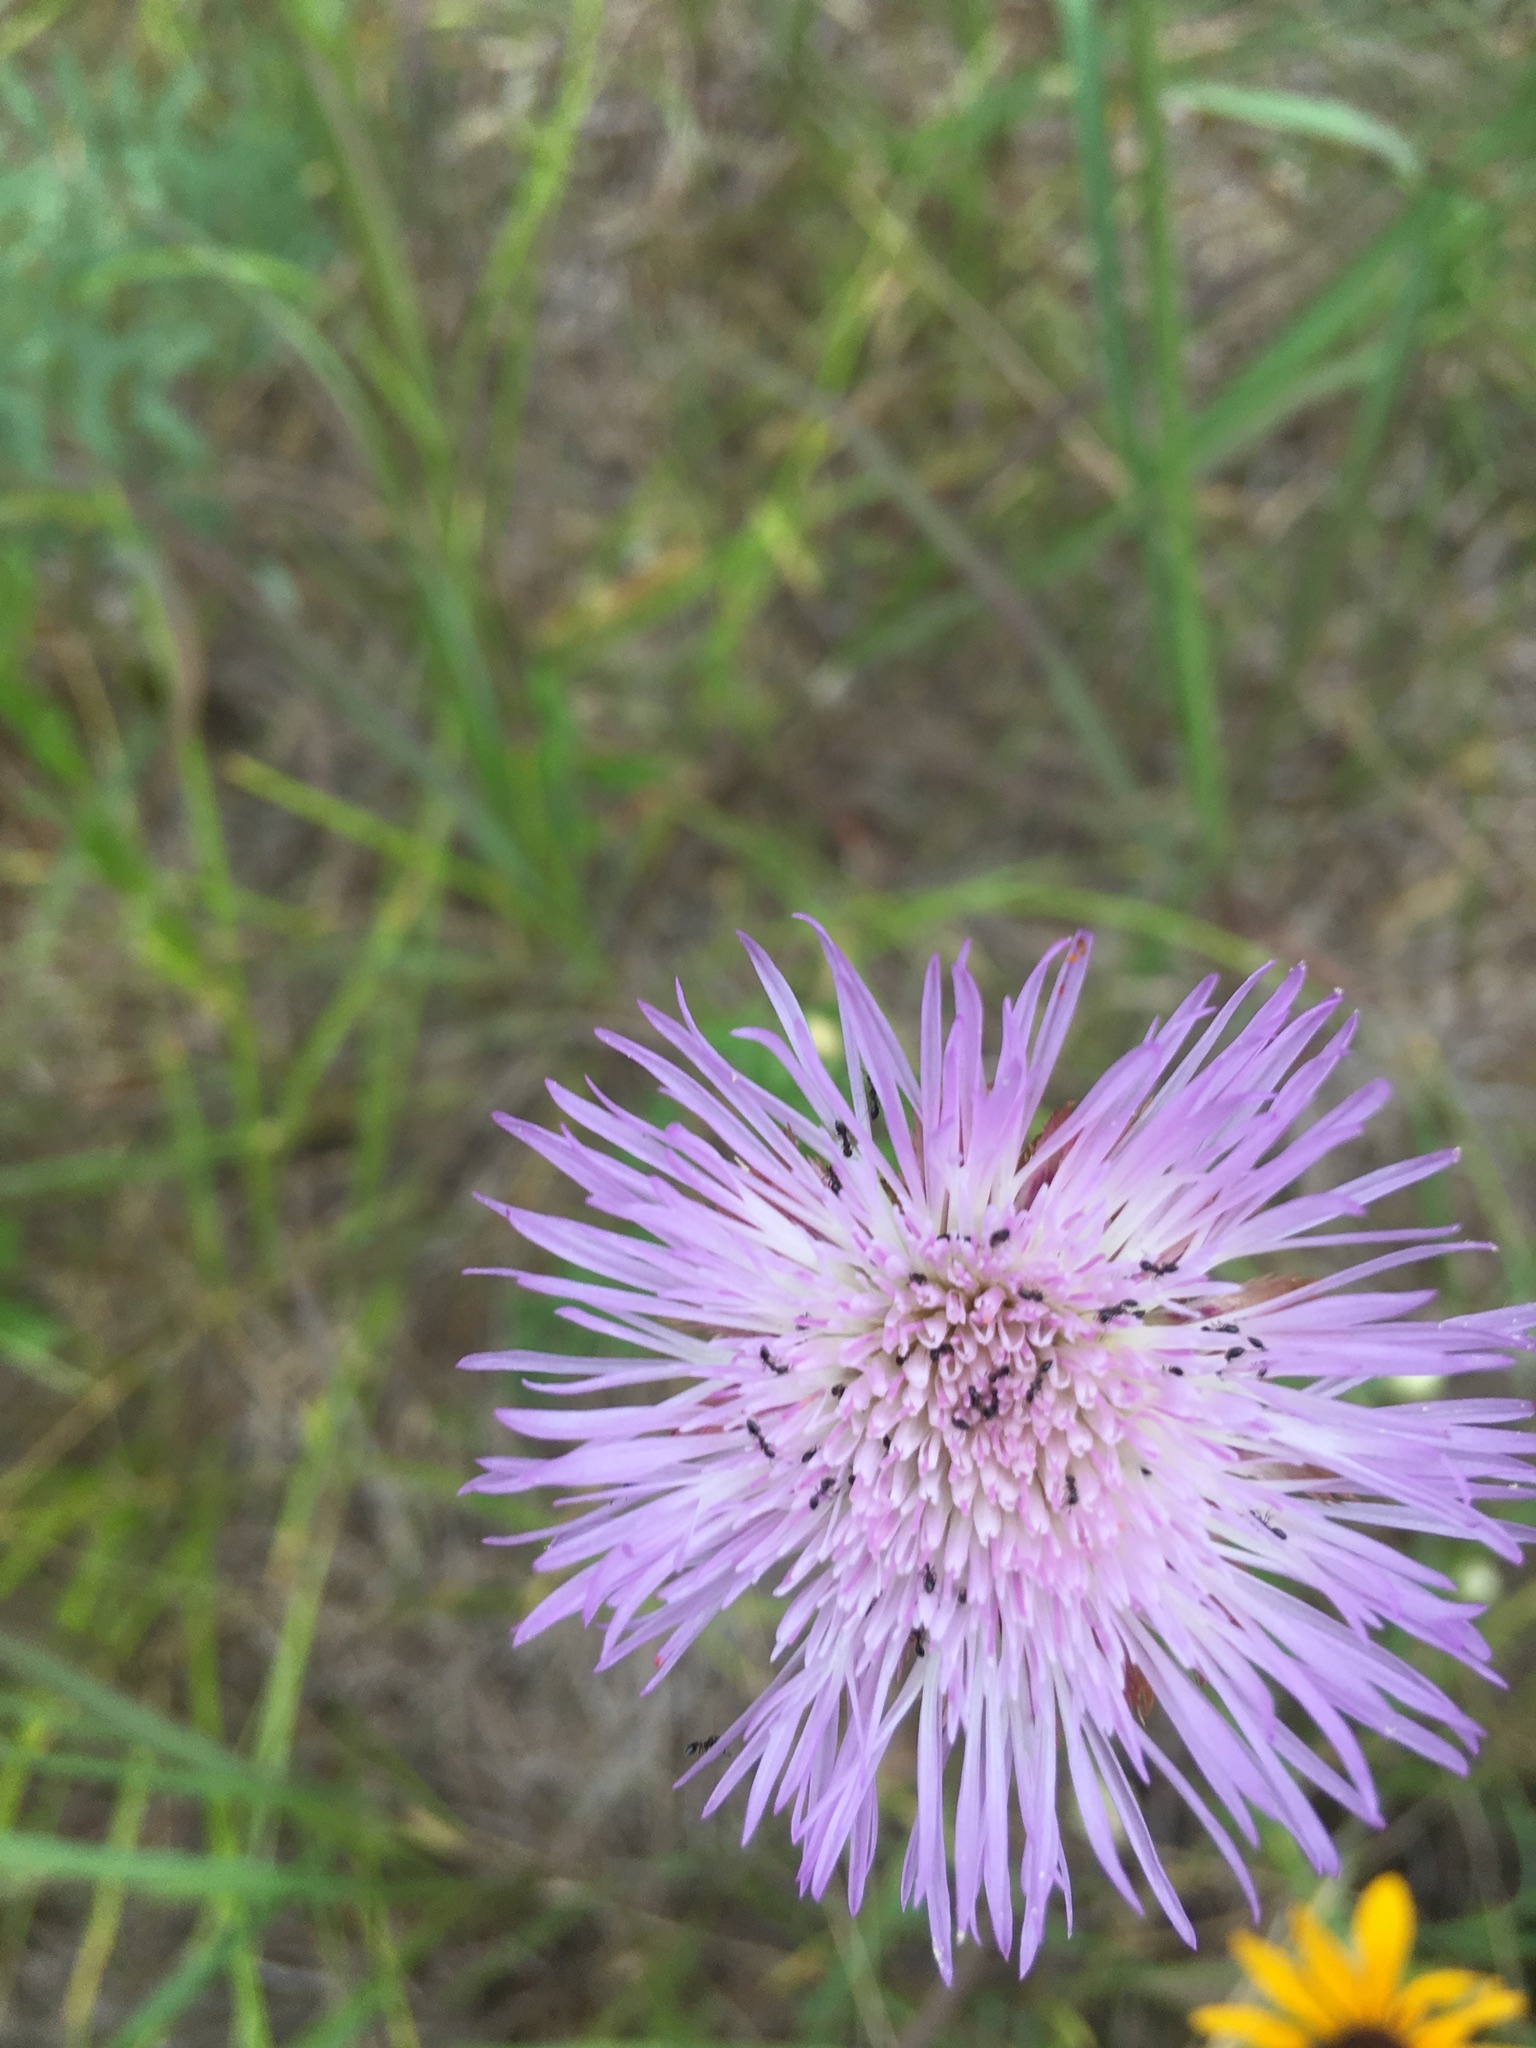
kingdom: Plantae
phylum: Tracheophyta
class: Magnoliopsida
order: Asterales
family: Asteraceae
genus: Plectocephalus
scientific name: Plectocephalus americanus
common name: American basket-flower
